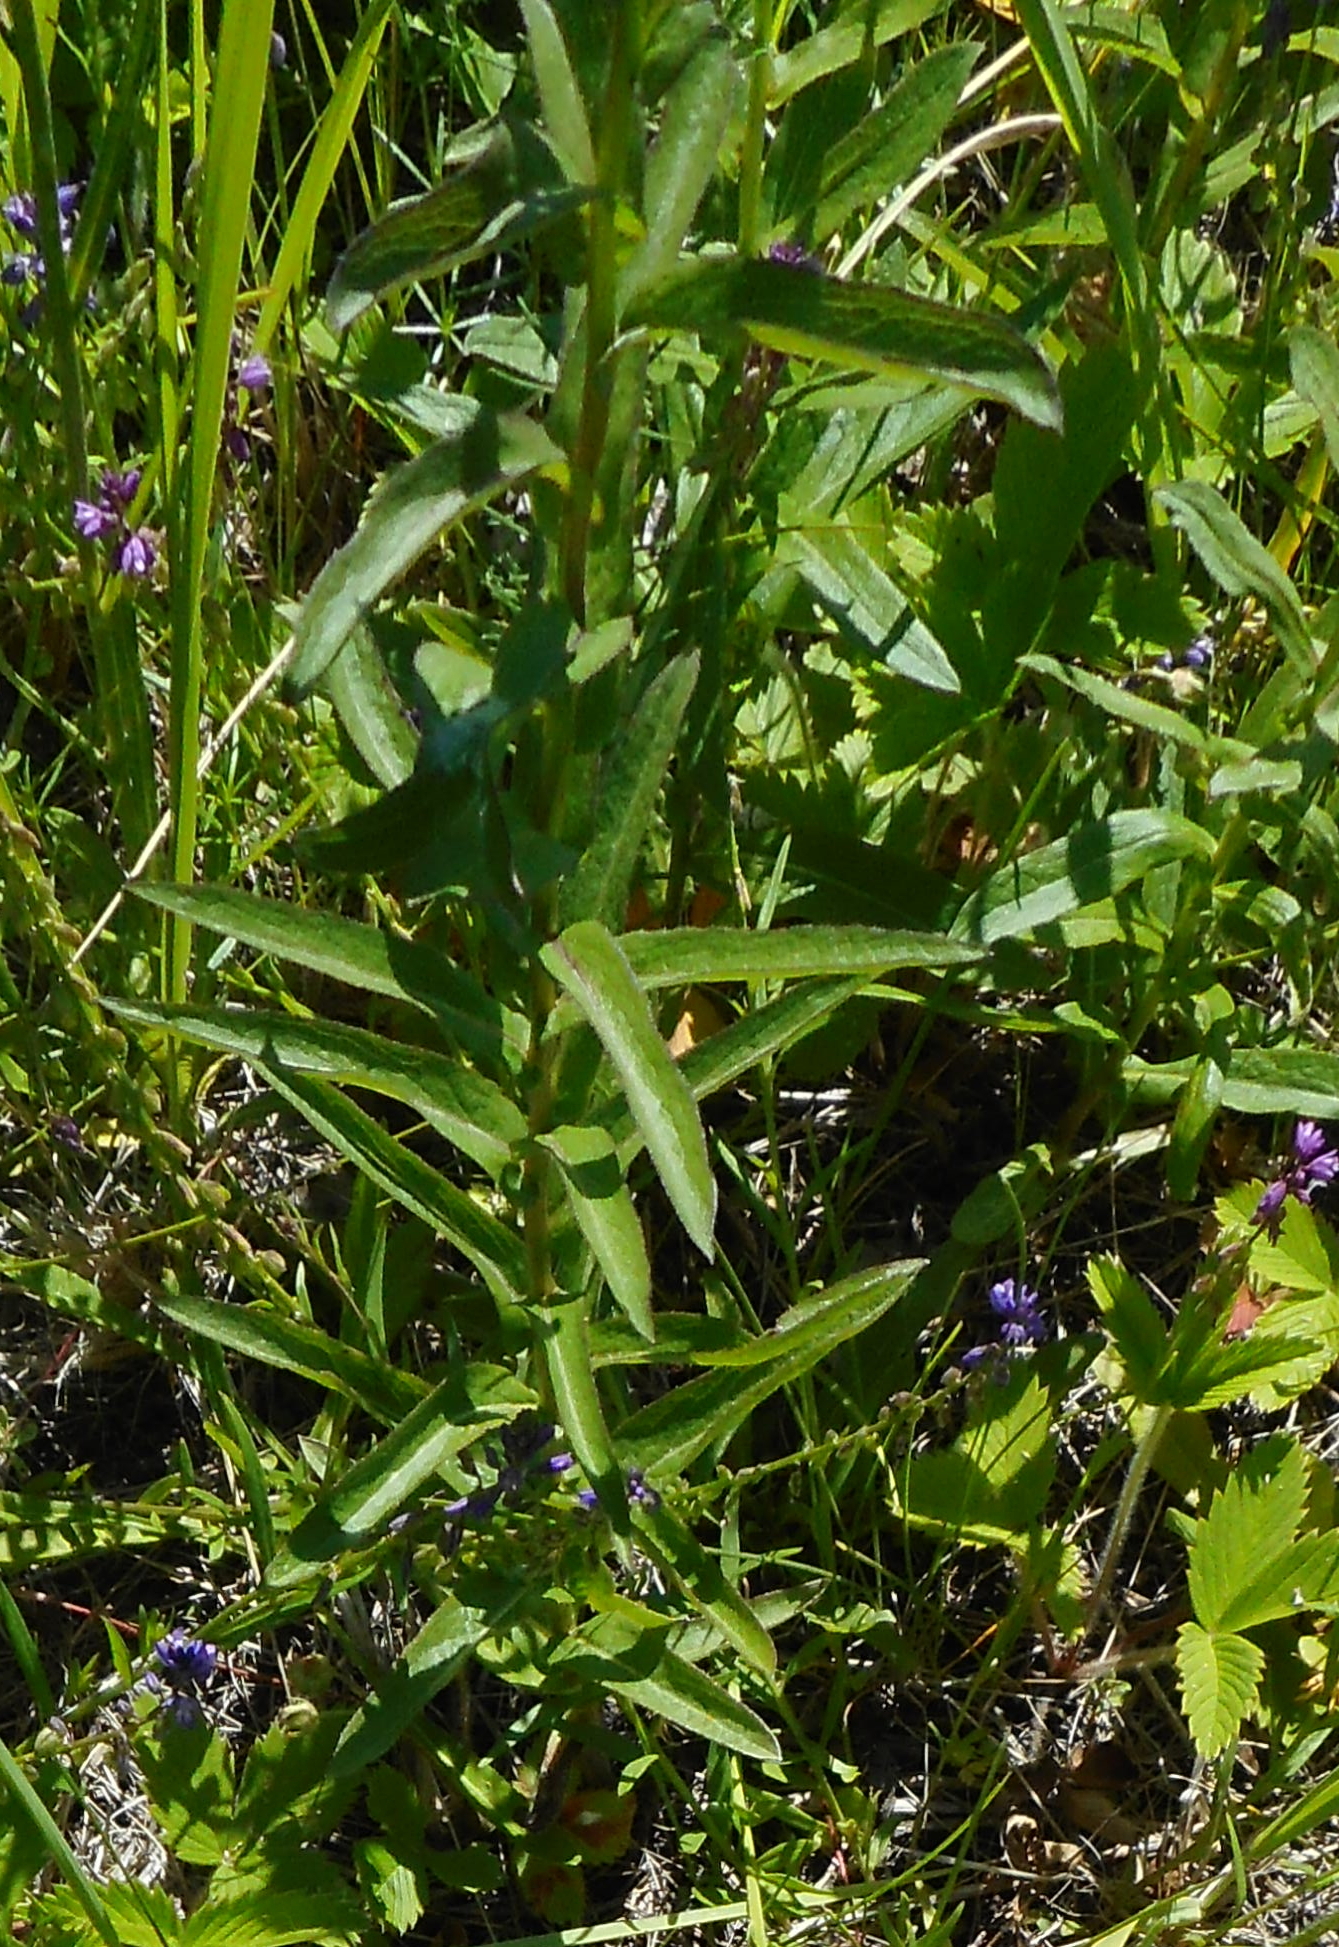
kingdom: Plantae
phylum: Tracheophyta
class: Magnoliopsida
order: Lamiales
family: Plantaginaceae
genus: Veronica
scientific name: Veronica longifolia
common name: Garden speedwell
